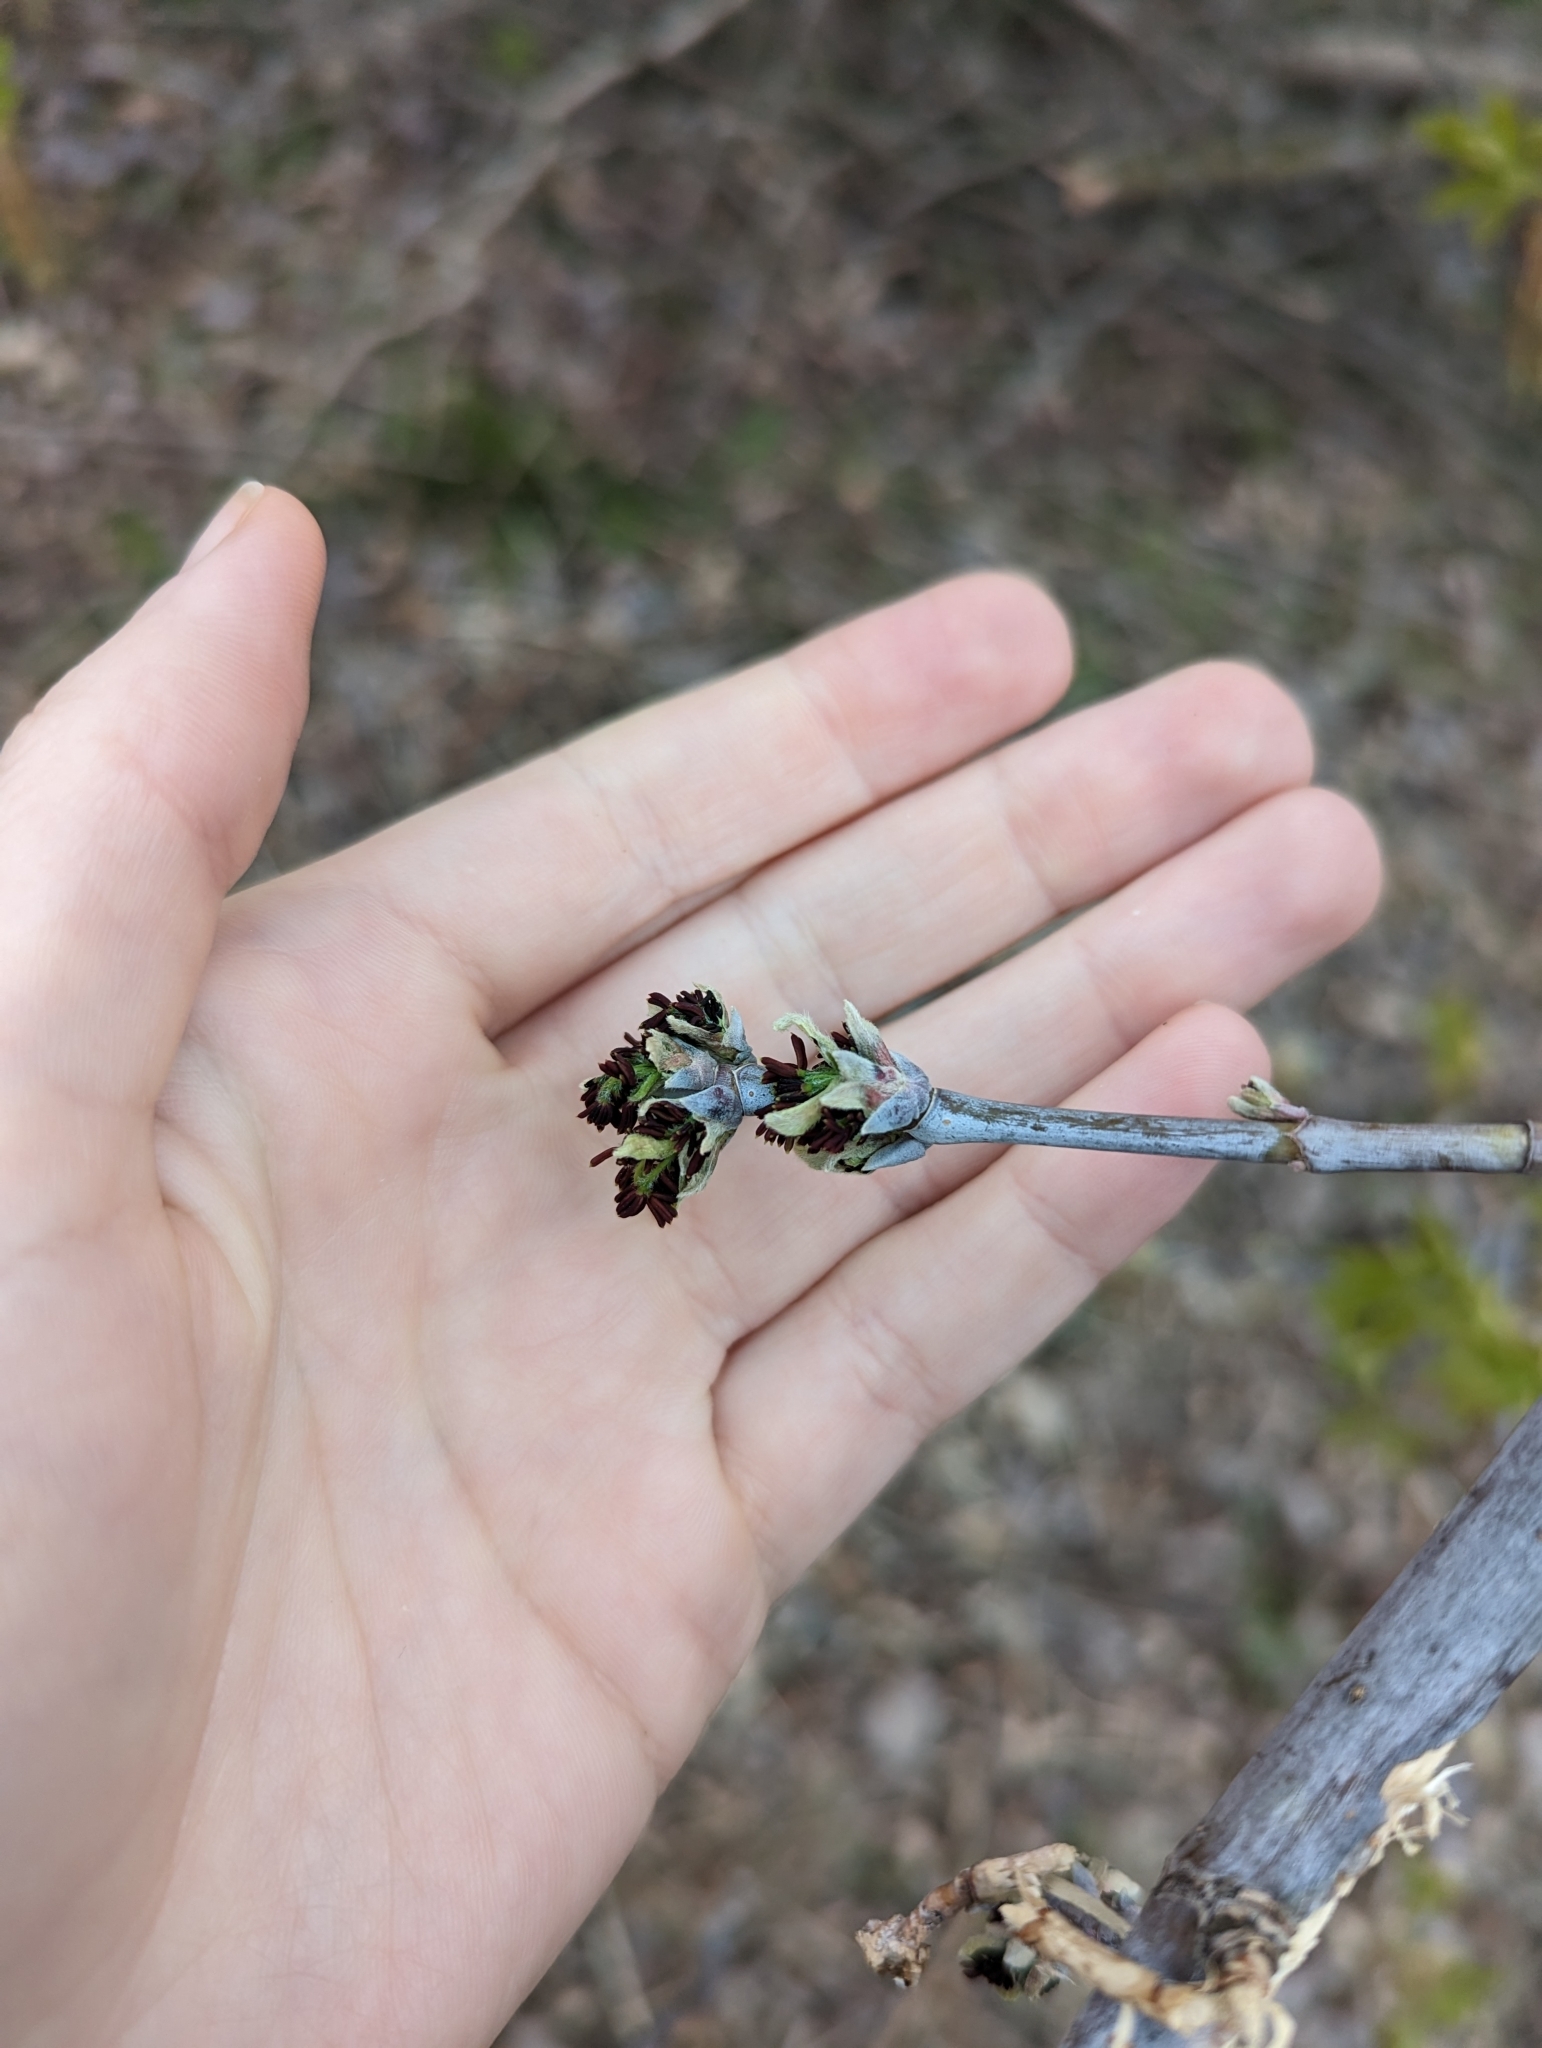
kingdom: Plantae
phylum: Tracheophyta
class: Magnoliopsida
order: Sapindales
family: Sapindaceae
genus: Acer
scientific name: Acer negundo
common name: Ashleaf maple
